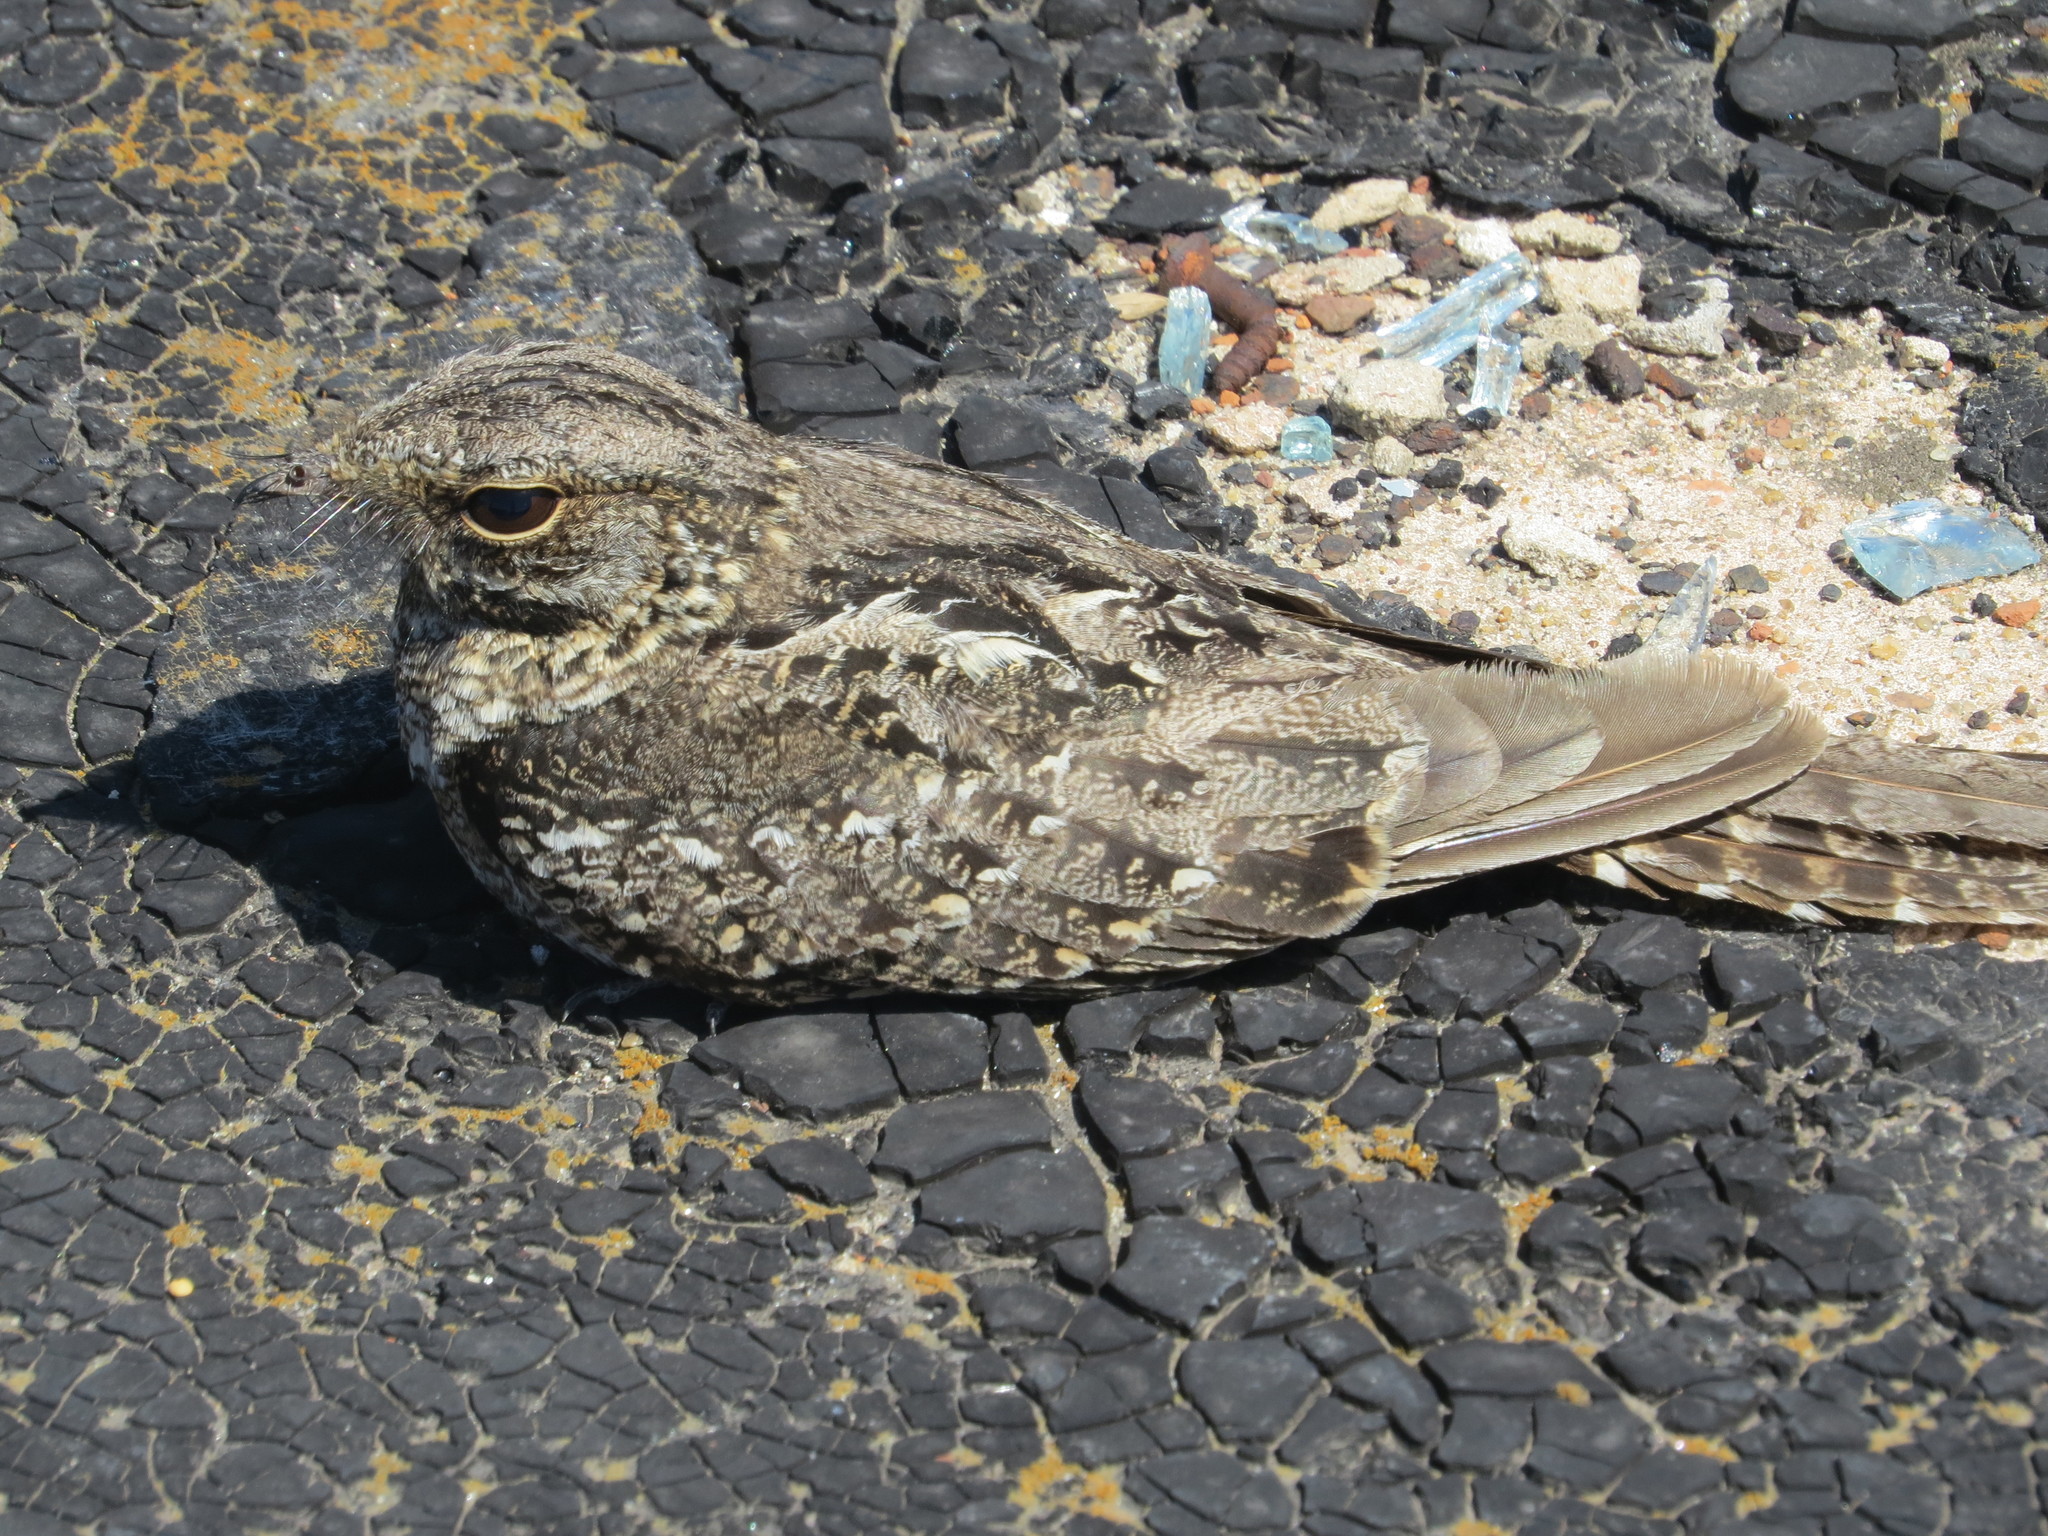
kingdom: Animalia
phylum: Chordata
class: Aves
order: Caprimulgiformes
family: Caprimulgidae
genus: Hydropsalis
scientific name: Hydropsalis torquata
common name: Scissor-tailed nightjar
